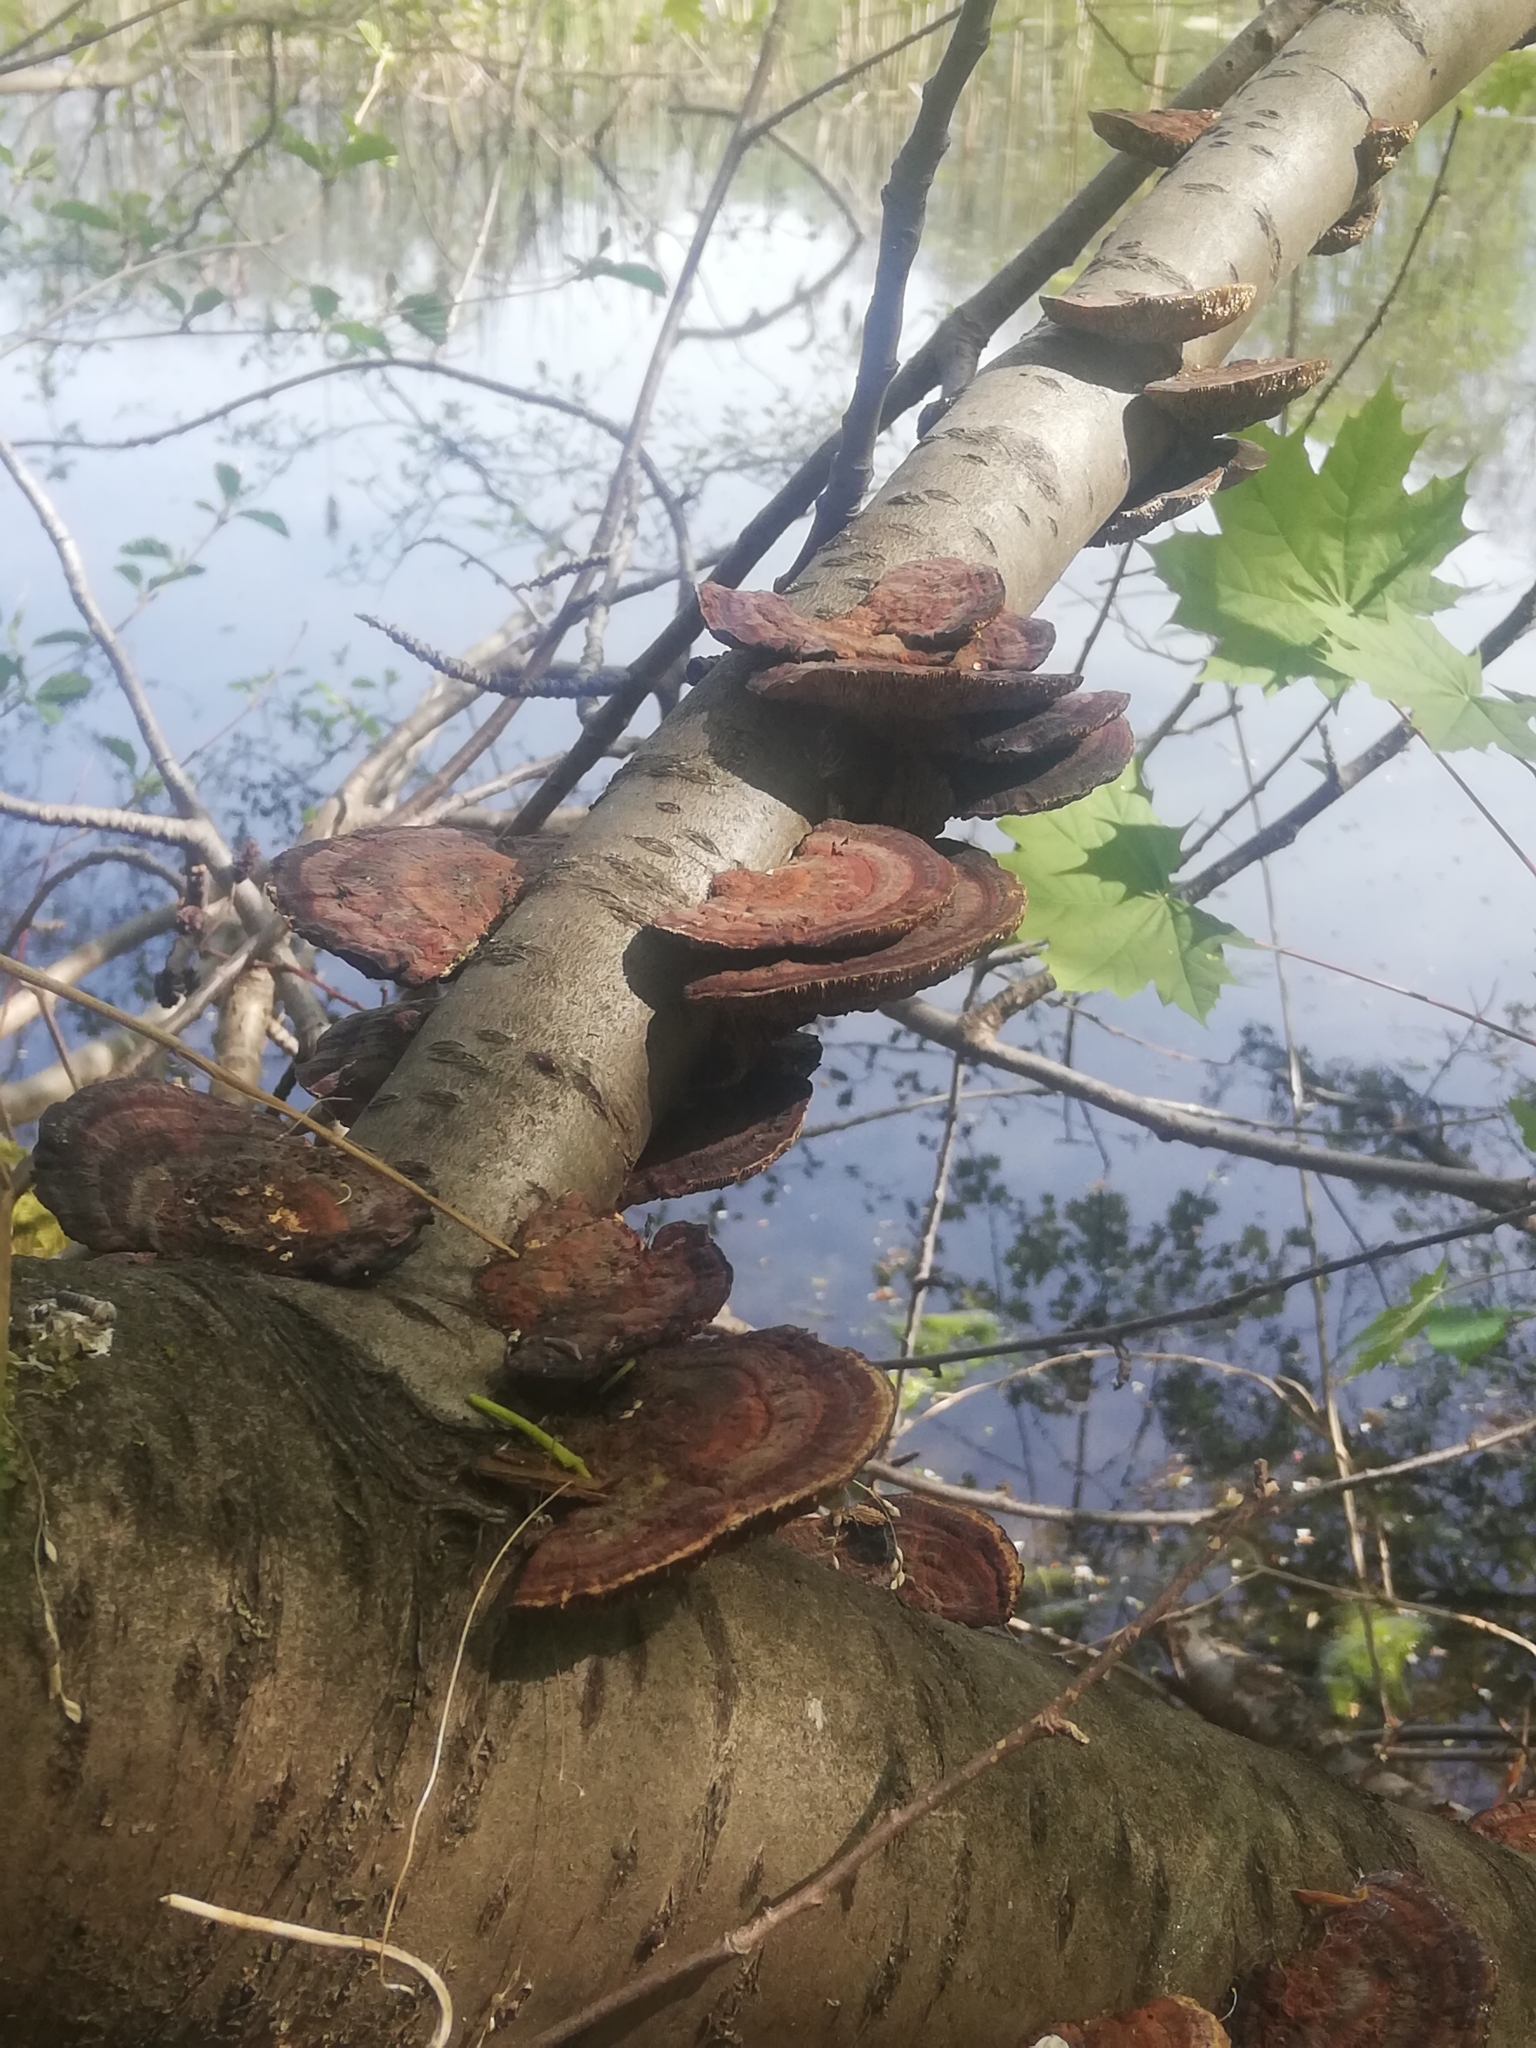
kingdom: Fungi
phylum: Basidiomycota
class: Agaricomycetes
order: Polyporales
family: Polyporaceae
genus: Daedaleopsis
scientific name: Daedaleopsis tricolor
